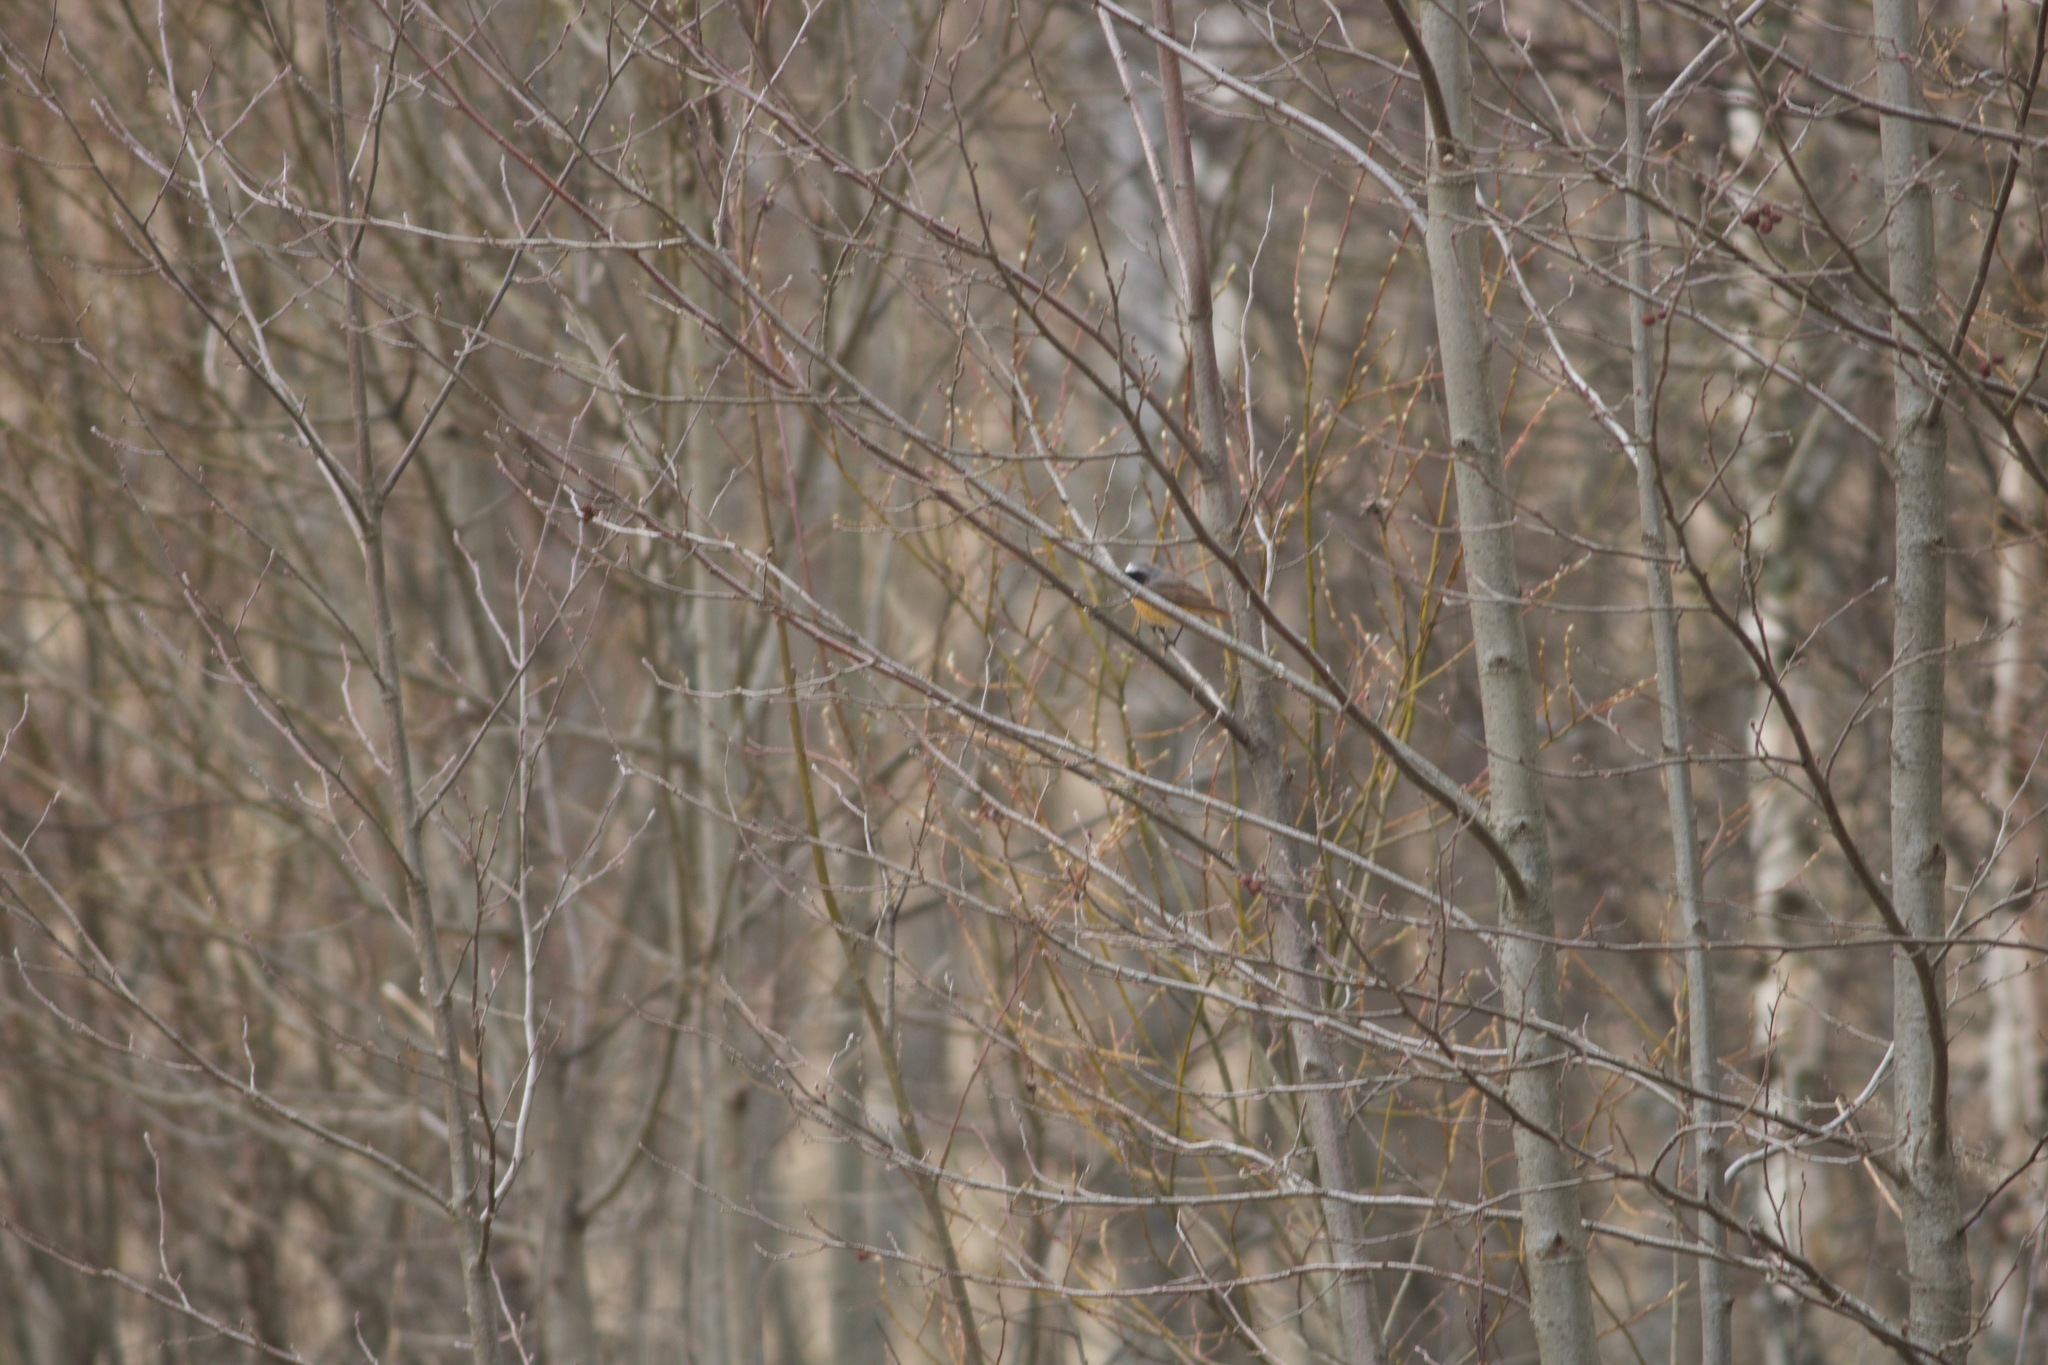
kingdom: Animalia
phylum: Chordata
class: Aves
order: Passeriformes
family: Muscicapidae
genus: Phoenicurus
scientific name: Phoenicurus phoenicurus
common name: Common redstart
